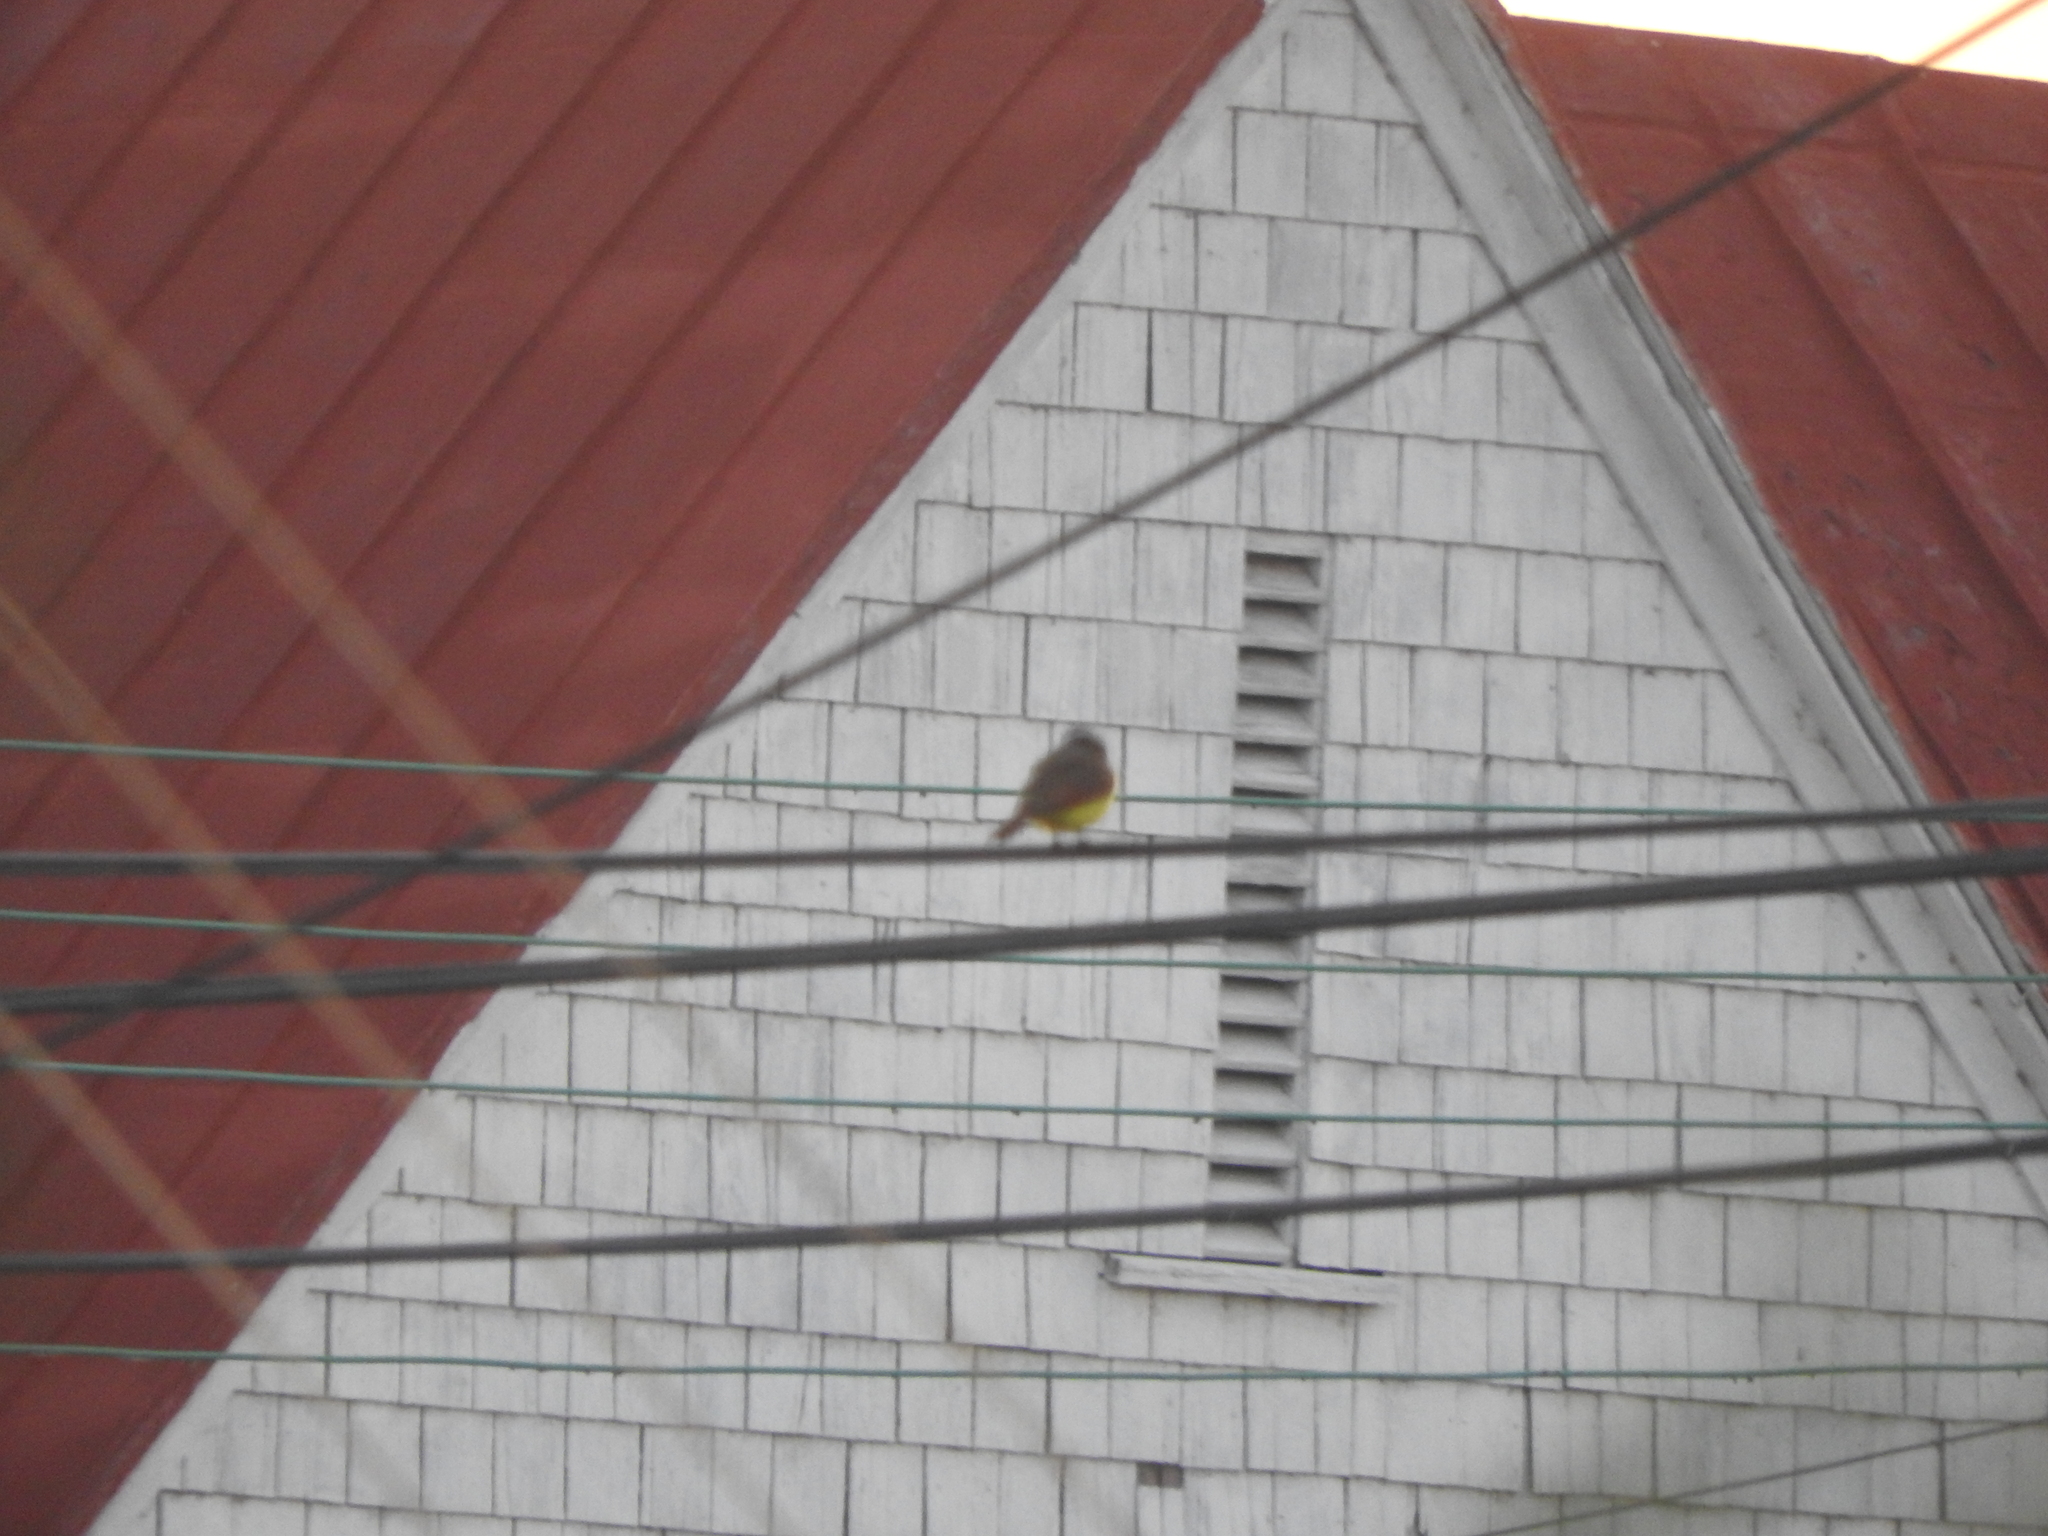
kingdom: Animalia
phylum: Chordata
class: Aves
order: Passeriformes
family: Tyrannidae
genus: Pitangus
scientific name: Pitangus sulphuratus
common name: Great kiskadee
